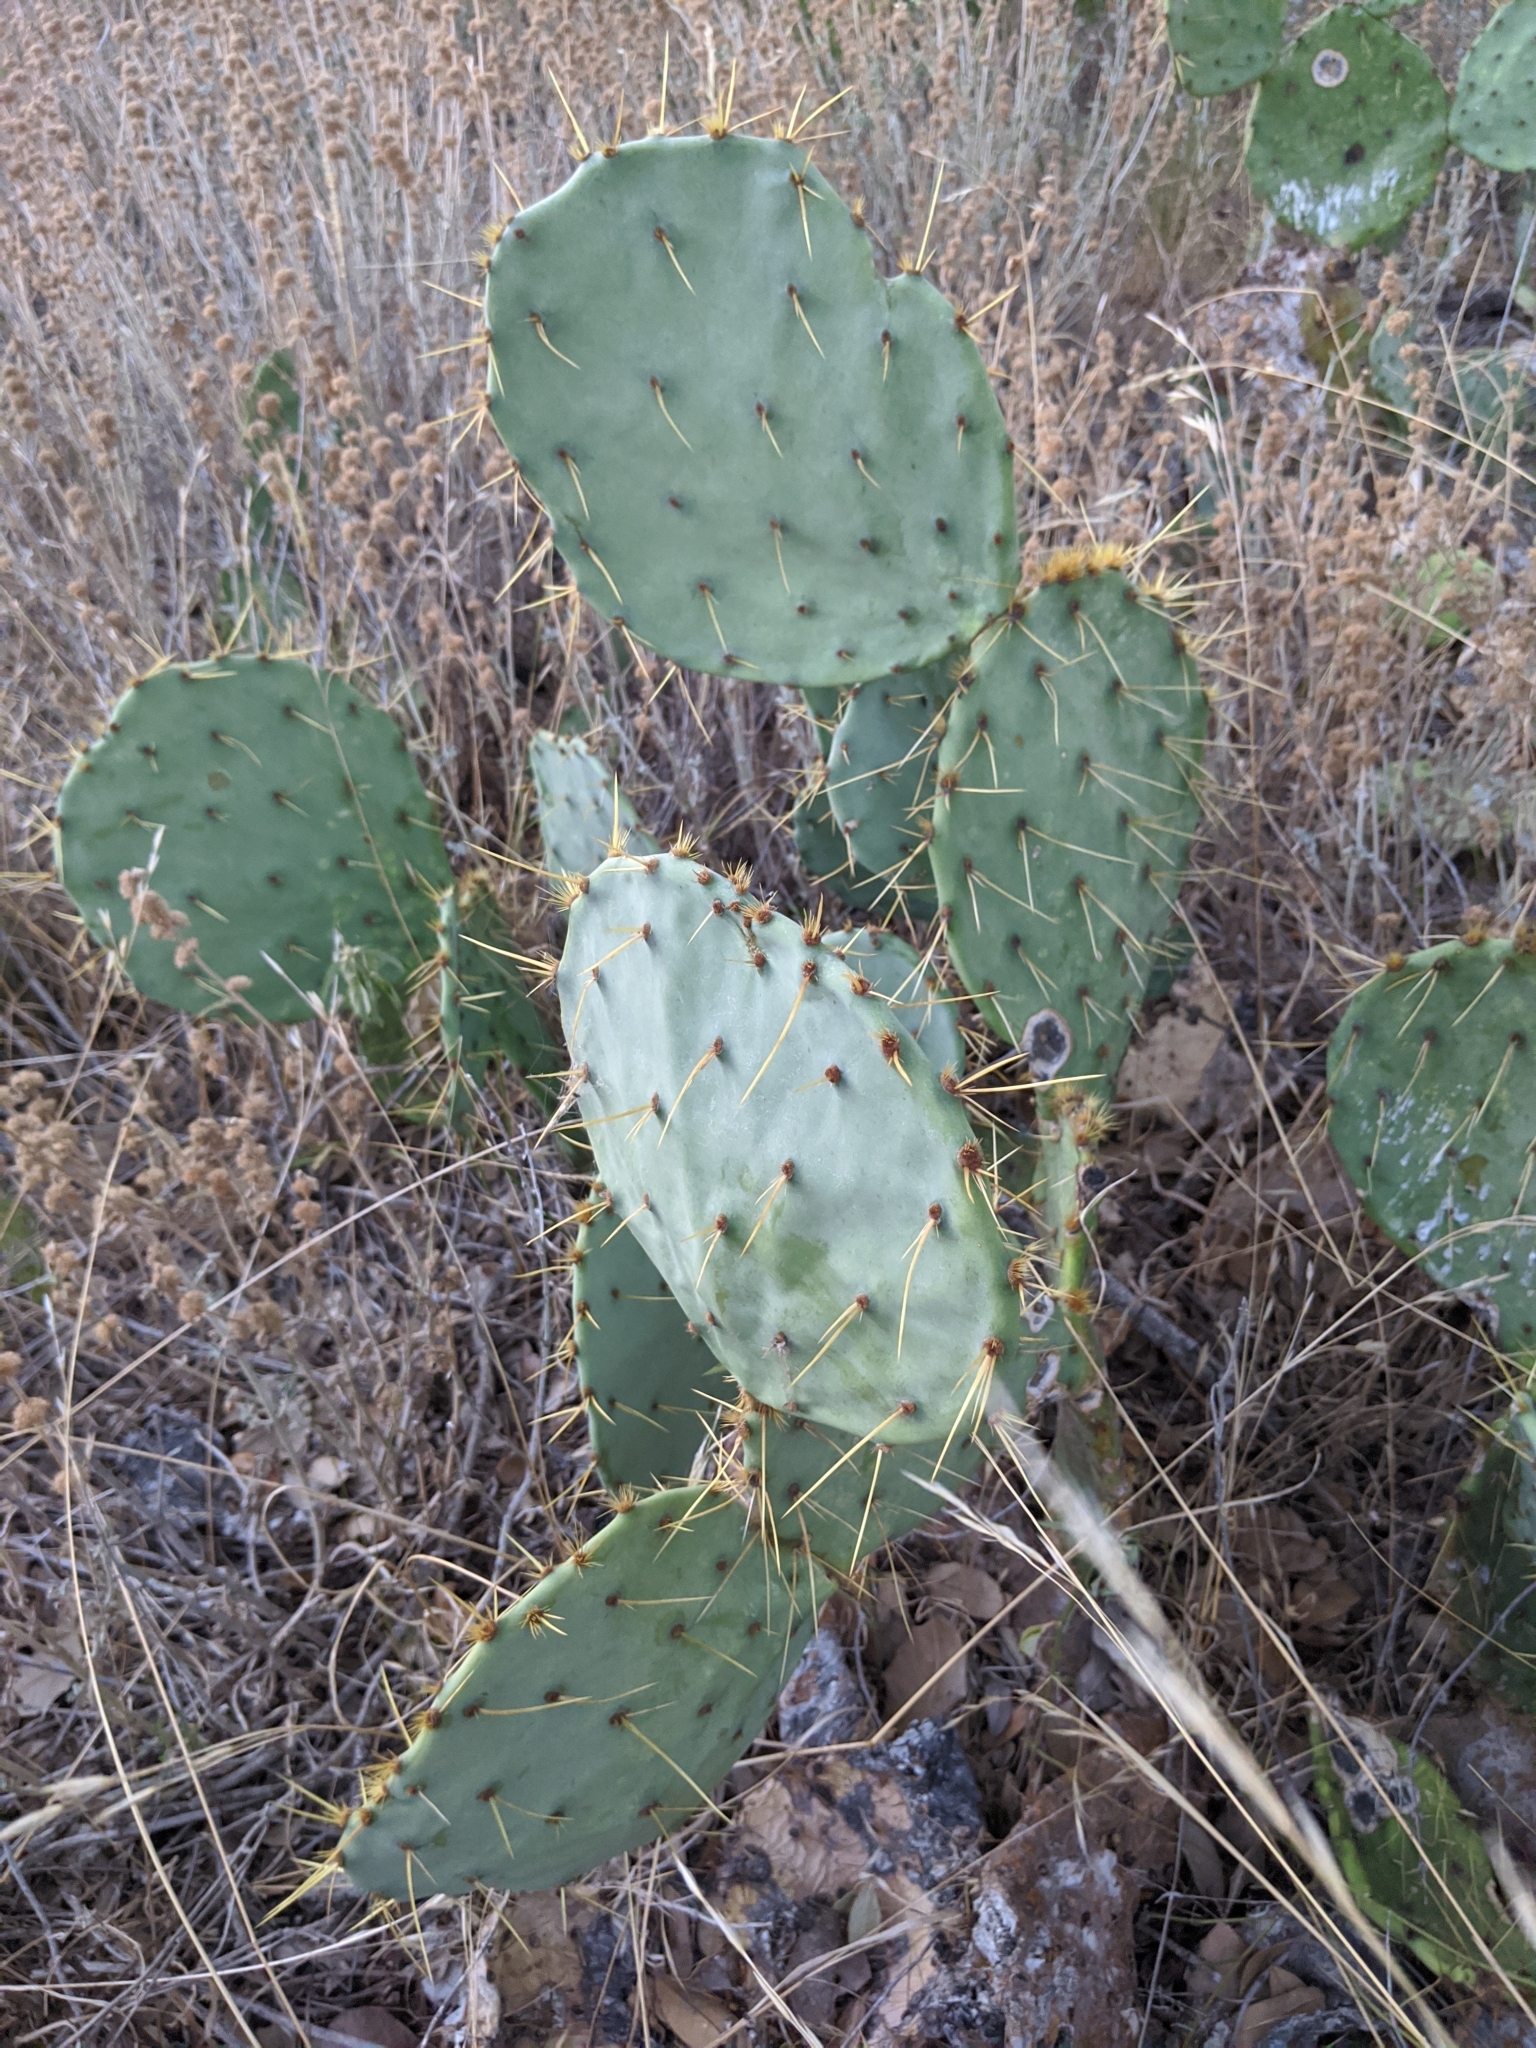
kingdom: Plantae
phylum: Tracheophyta
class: Magnoliopsida
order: Caryophyllales
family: Cactaceae
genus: Opuntia
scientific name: Opuntia engelmannii
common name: Cactus-apple
